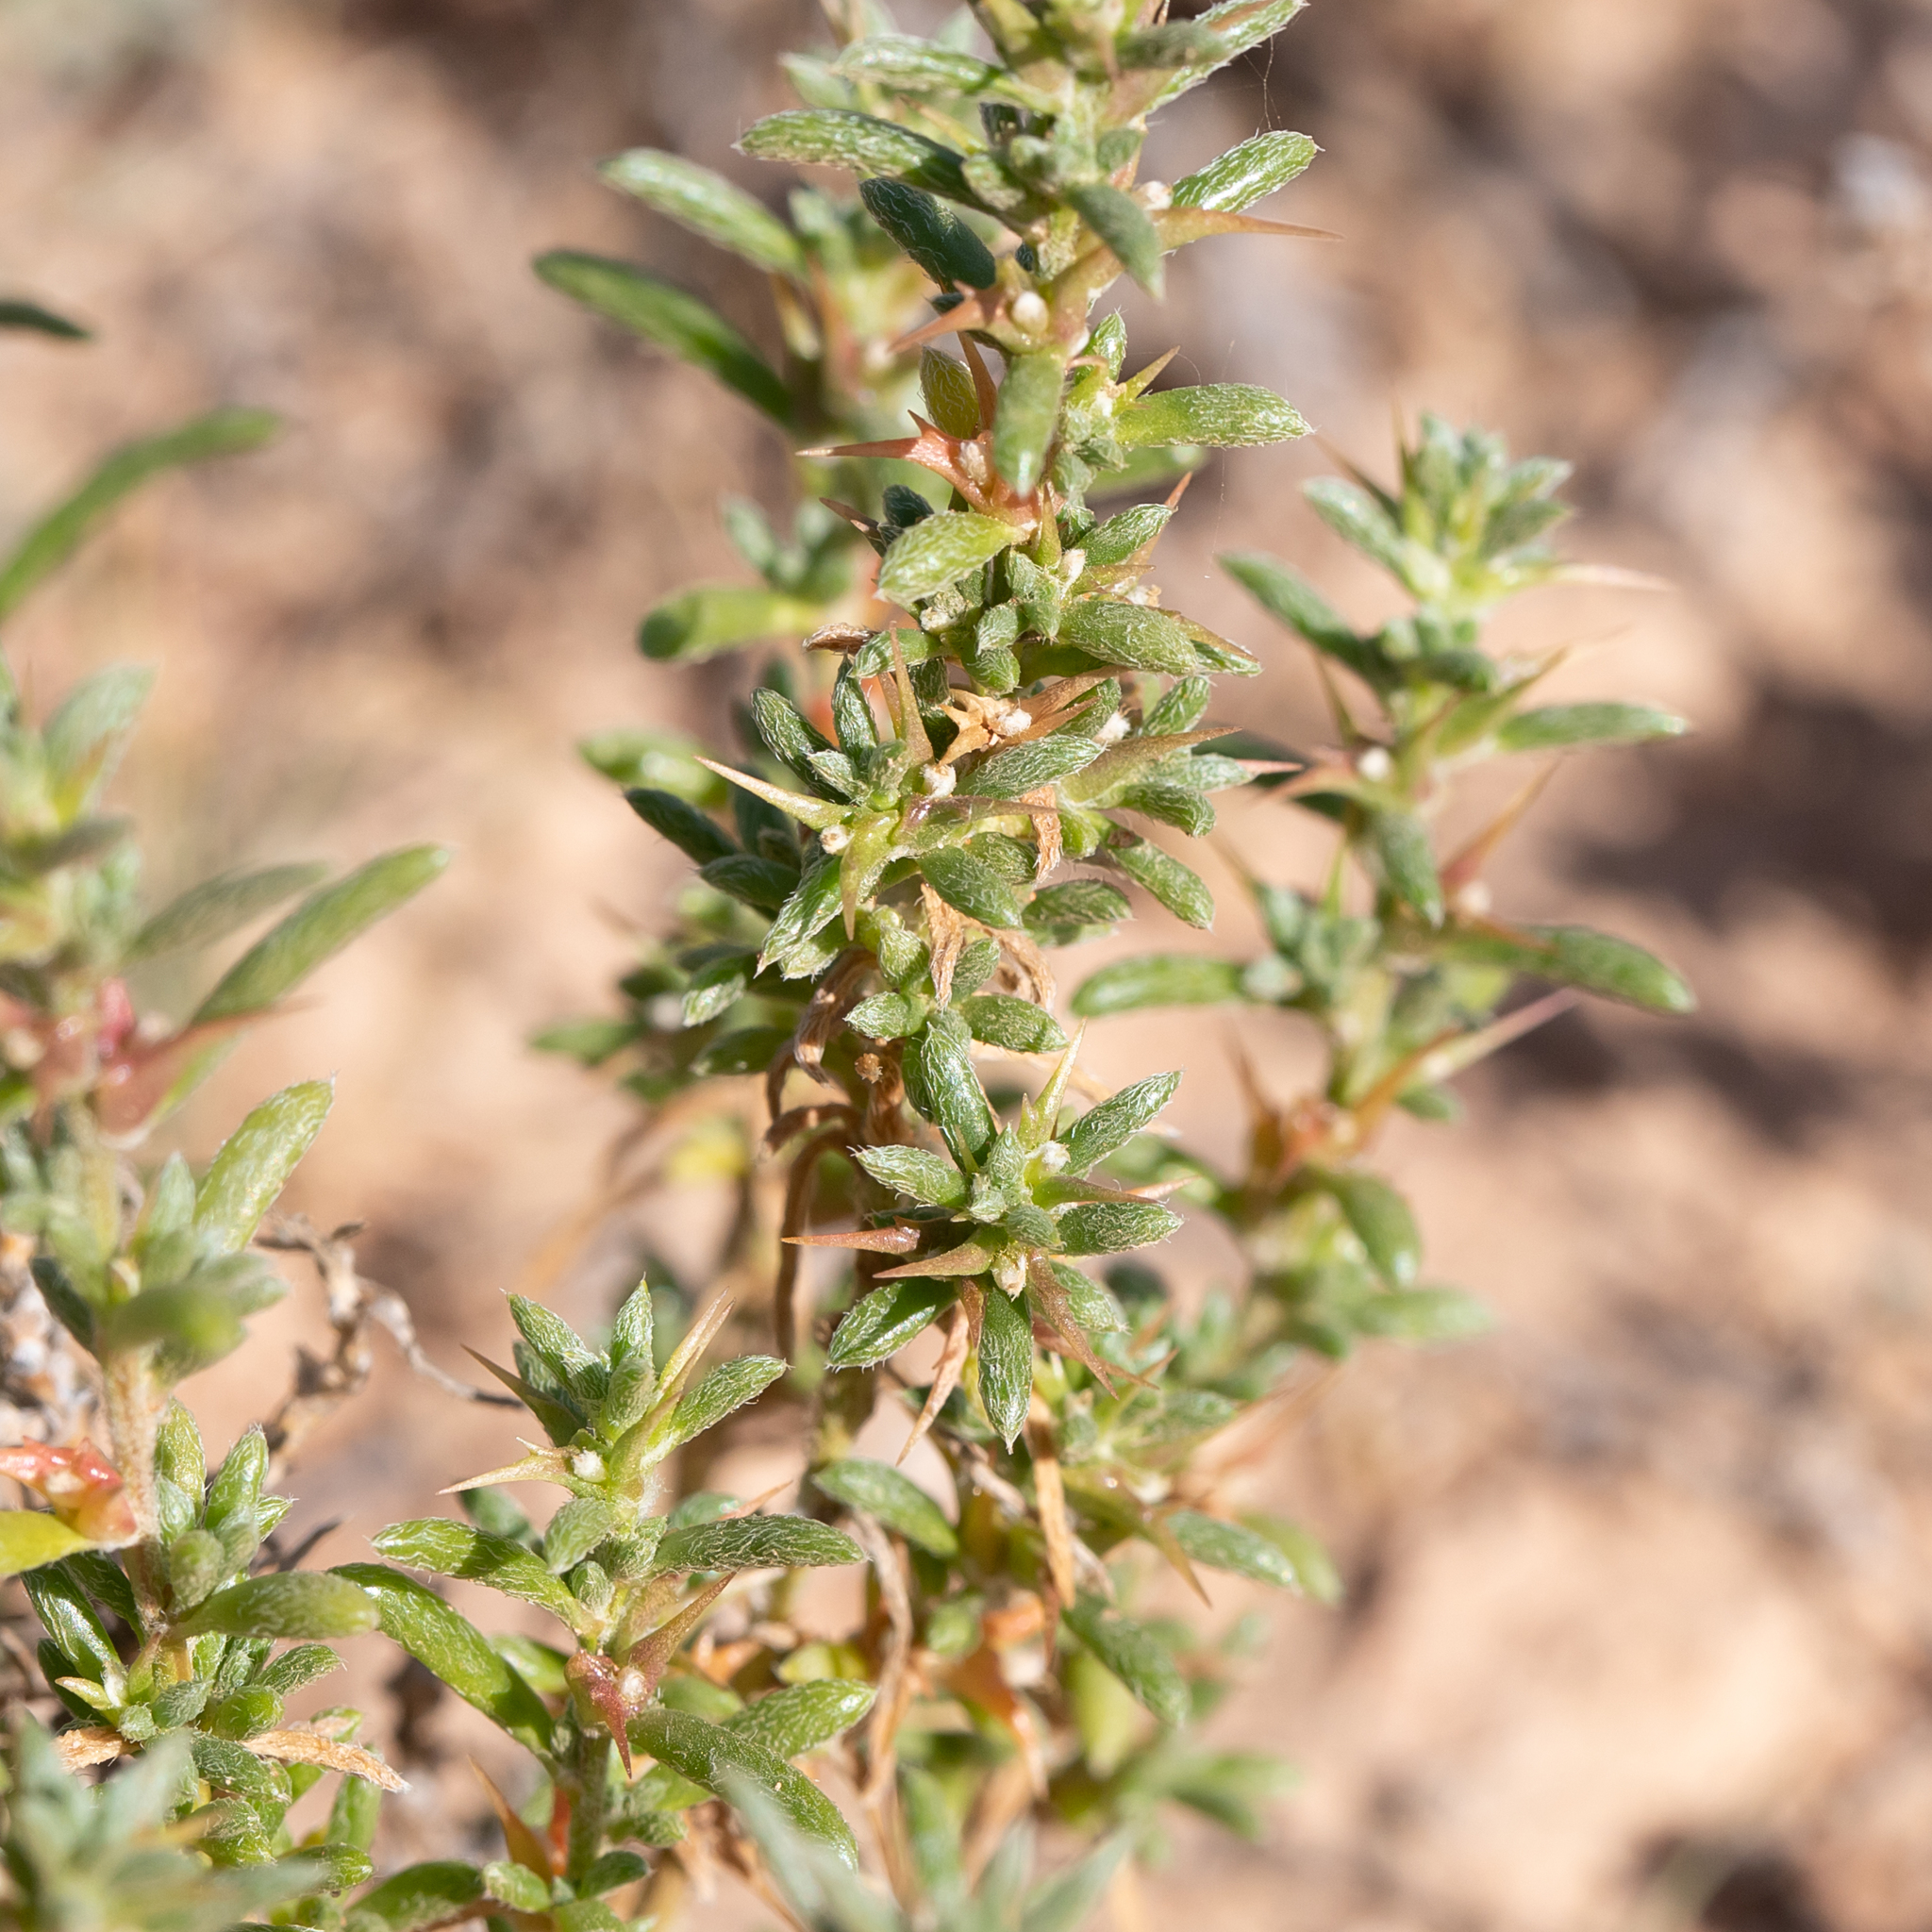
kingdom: Plantae
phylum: Tracheophyta
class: Magnoliopsida
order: Caryophyllales
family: Amaranthaceae
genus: Sclerolaena
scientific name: Sclerolaena decurrens
